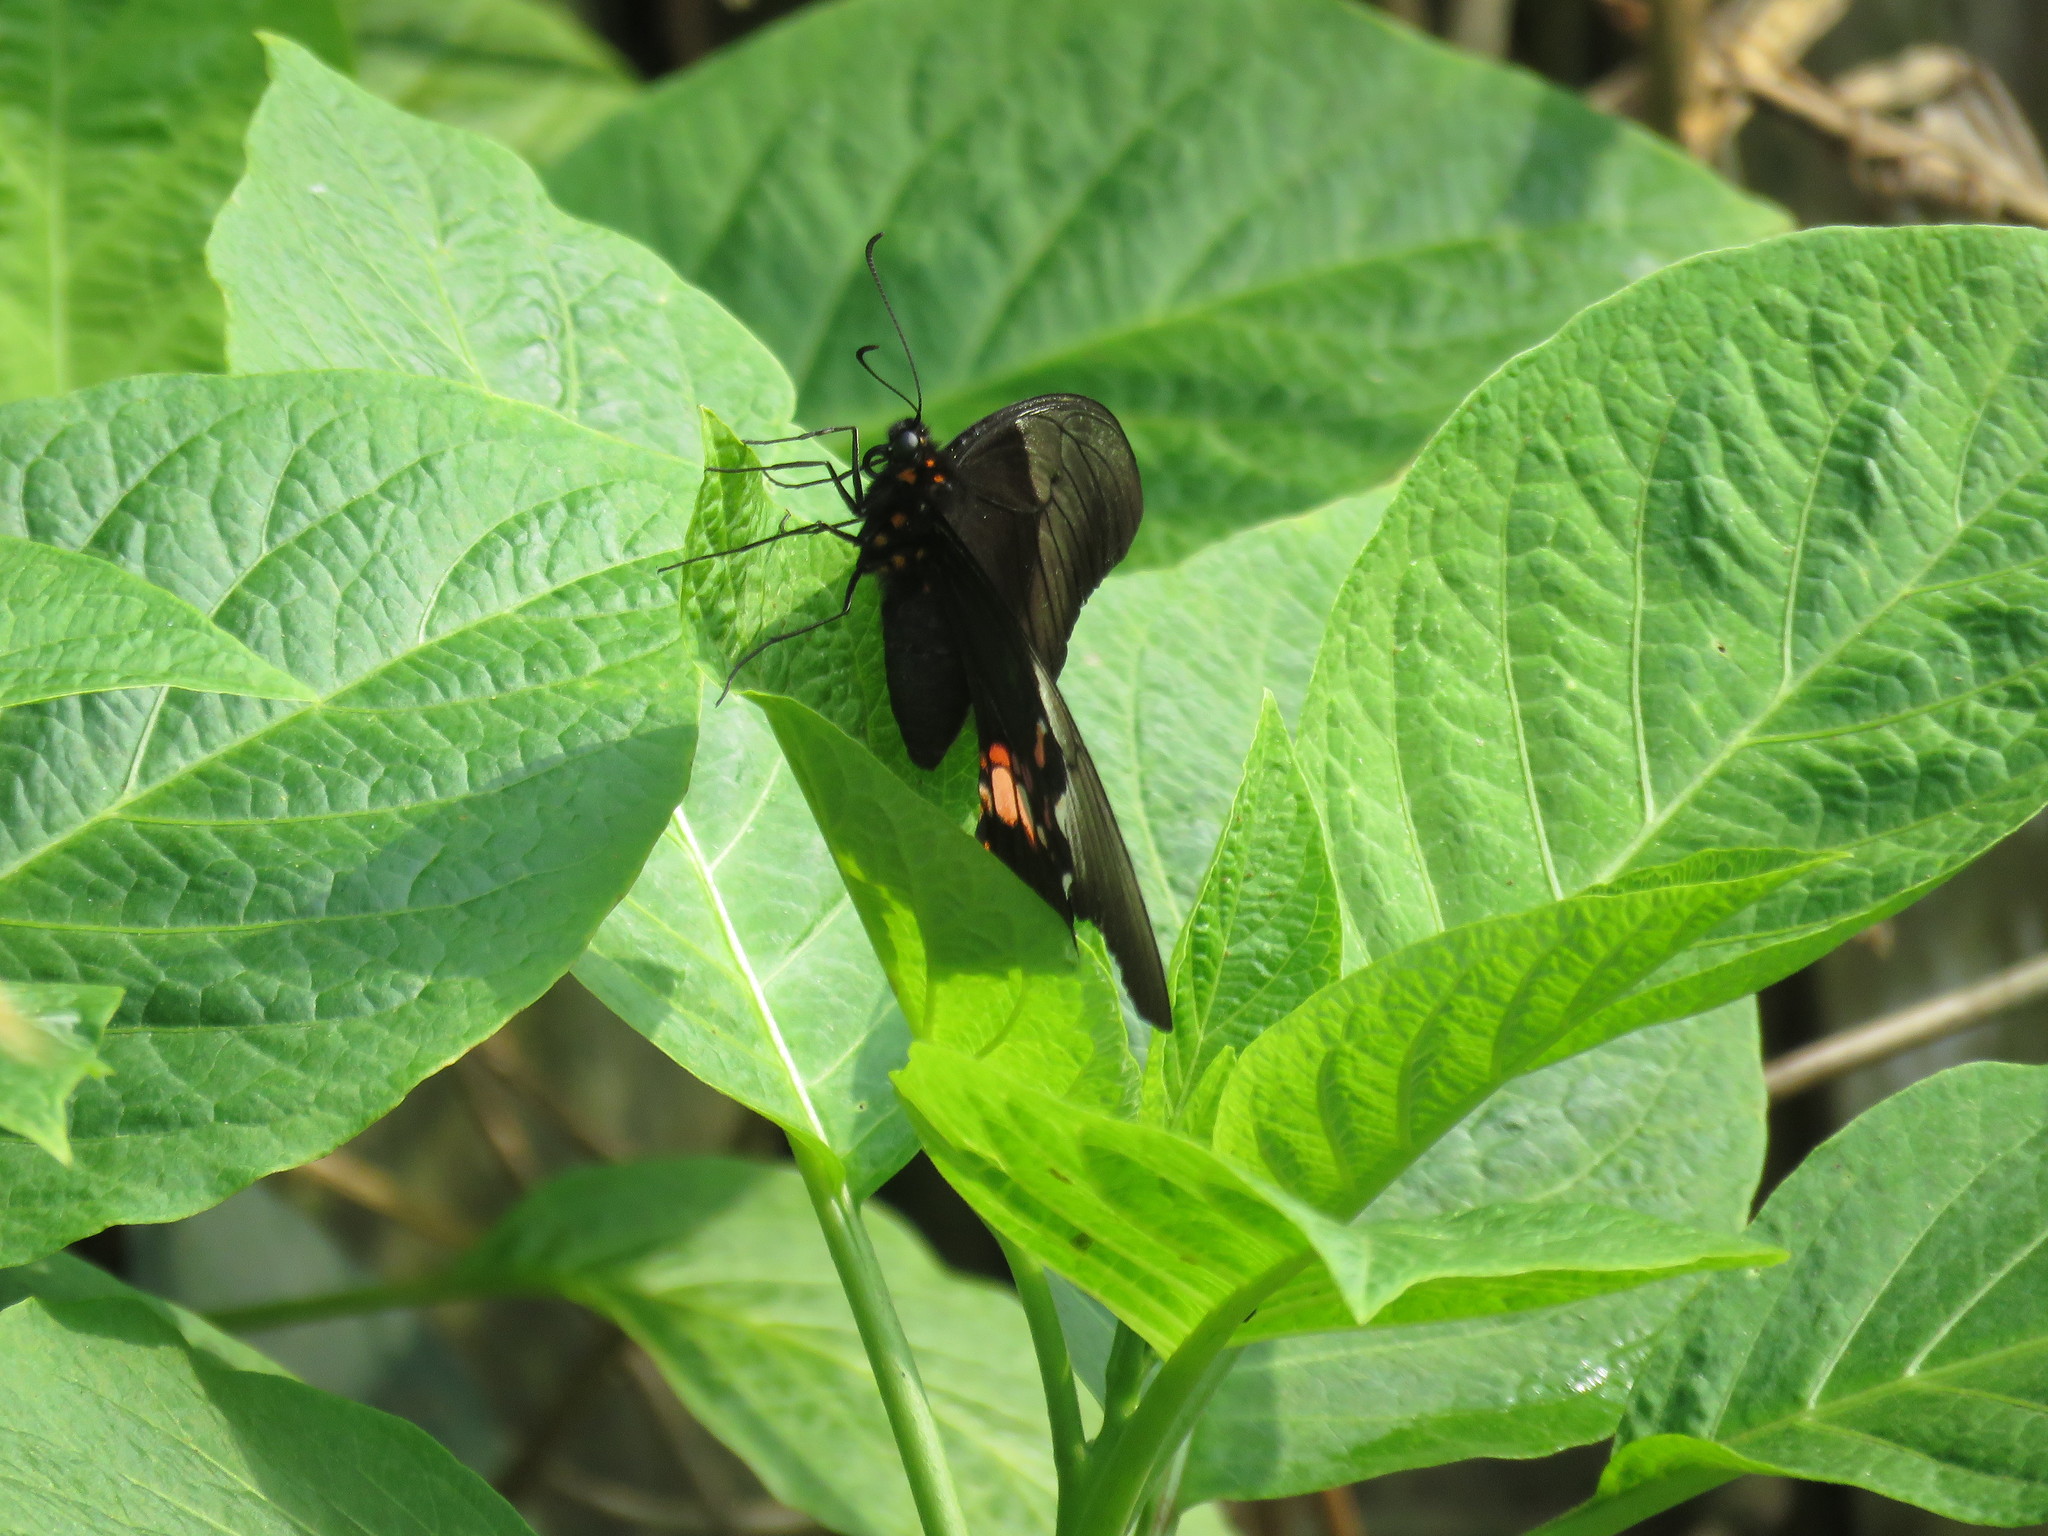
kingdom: Animalia
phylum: Arthropoda
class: Insecta
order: Lepidoptera
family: Papilionidae
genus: Papilio
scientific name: Papilio anchisiades
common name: Idaes swallowtail
